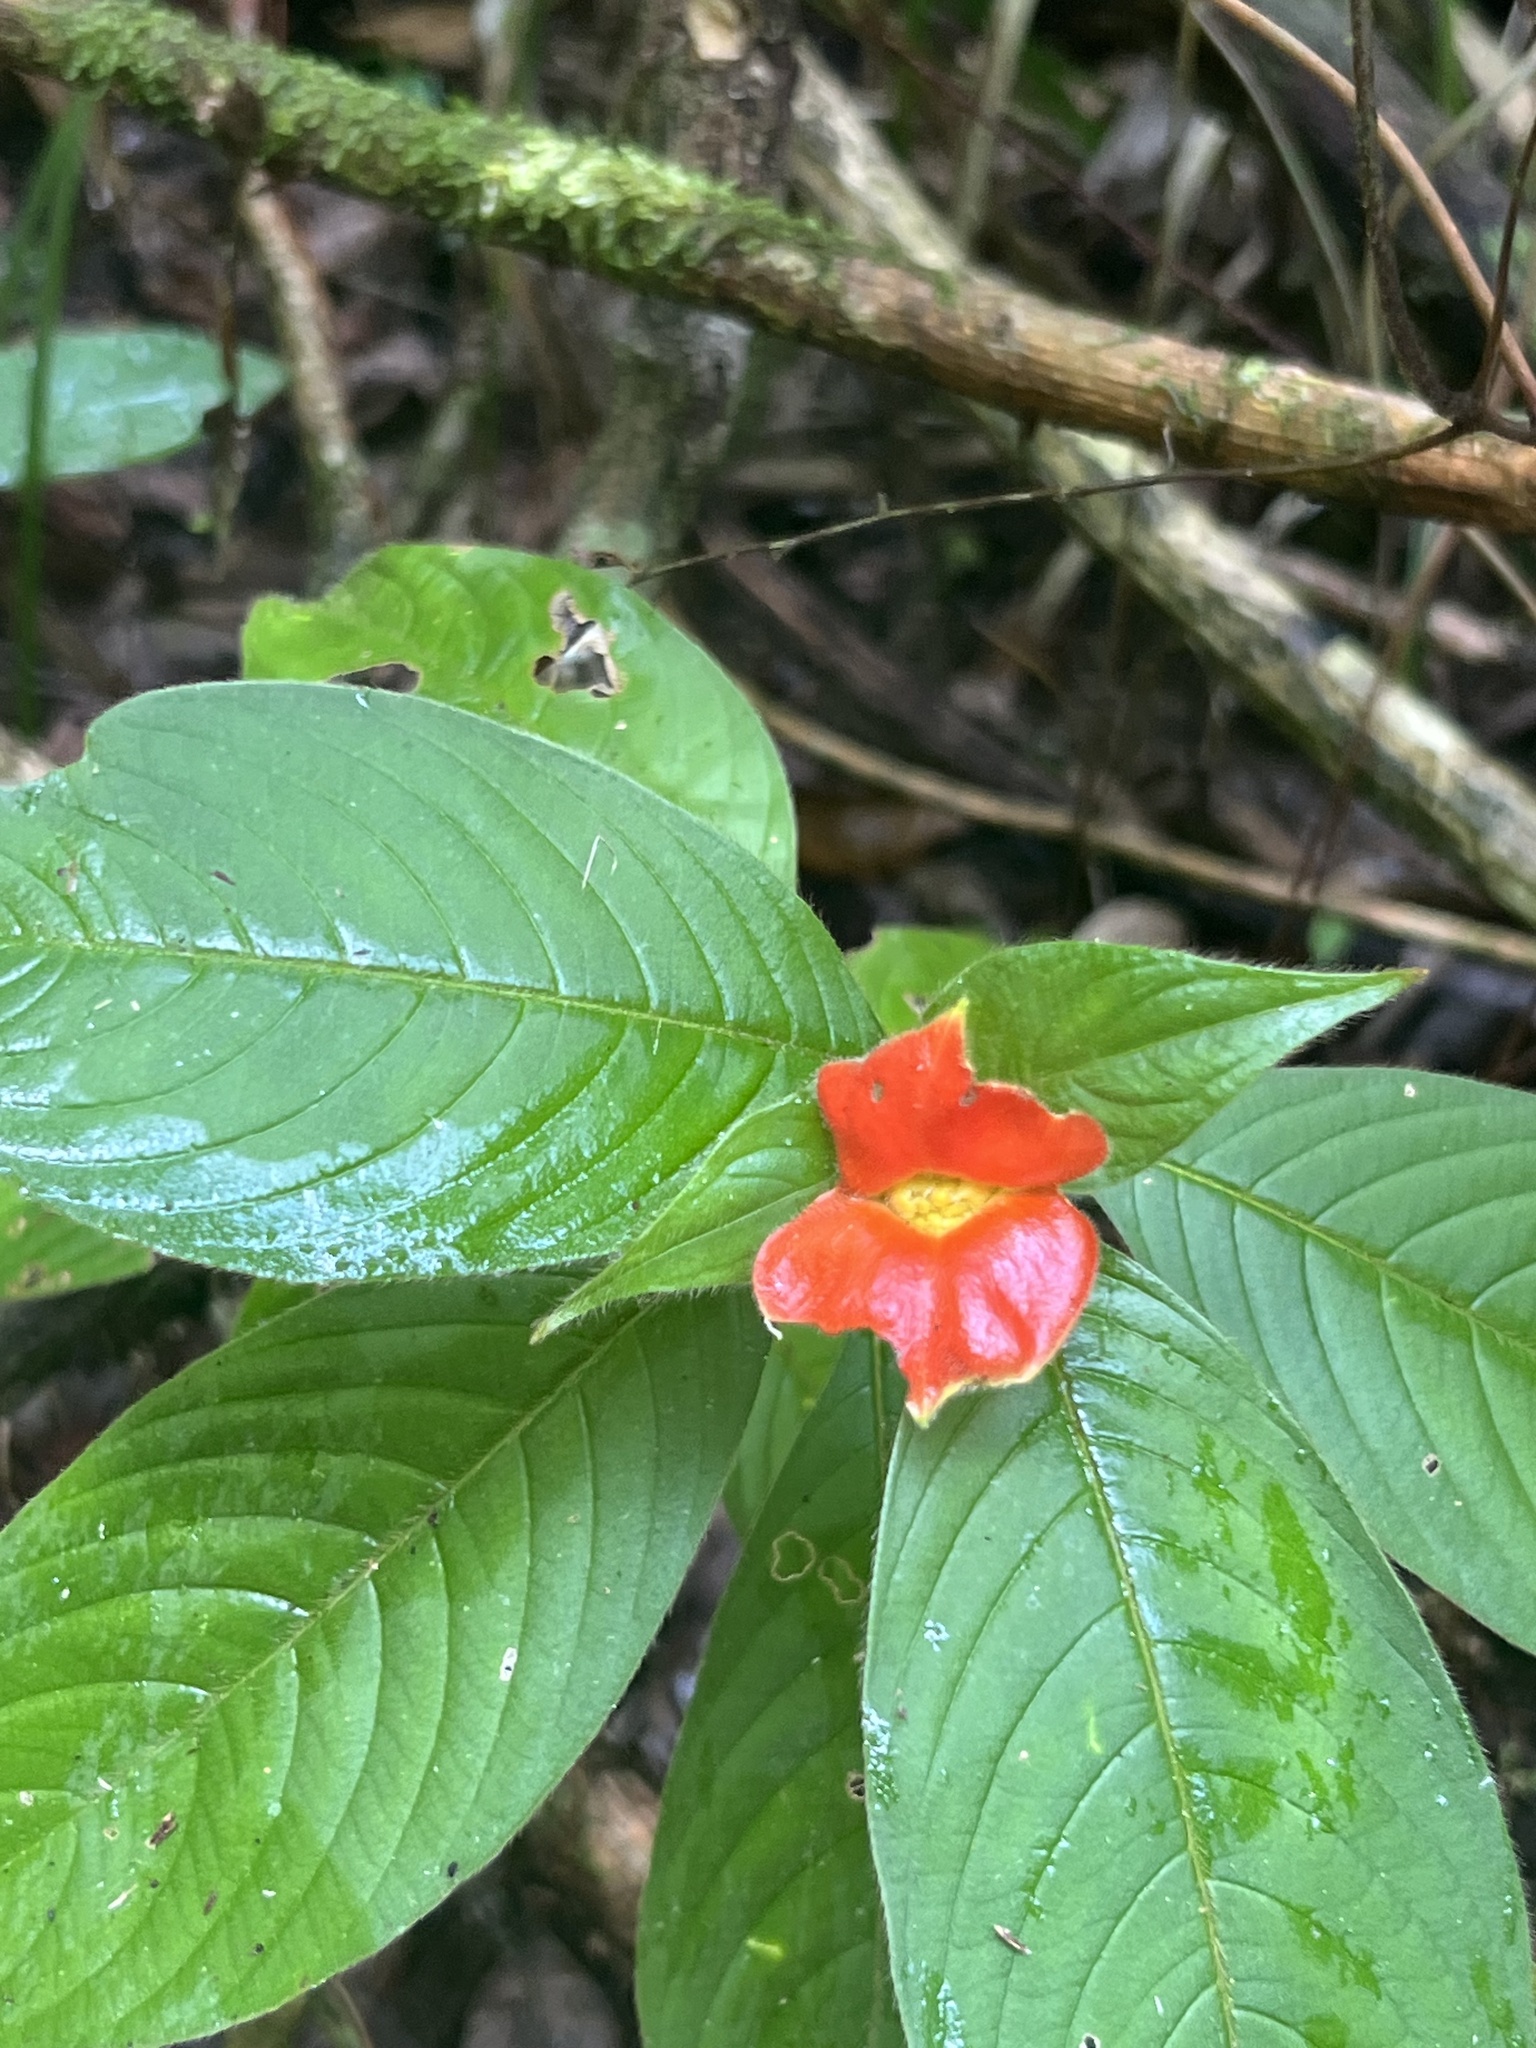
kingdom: Plantae
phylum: Tracheophyta
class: Magnoliopsida
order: Gentianales
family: Rubiaceae
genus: Palicourea
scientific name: Palicourea tomentosa
